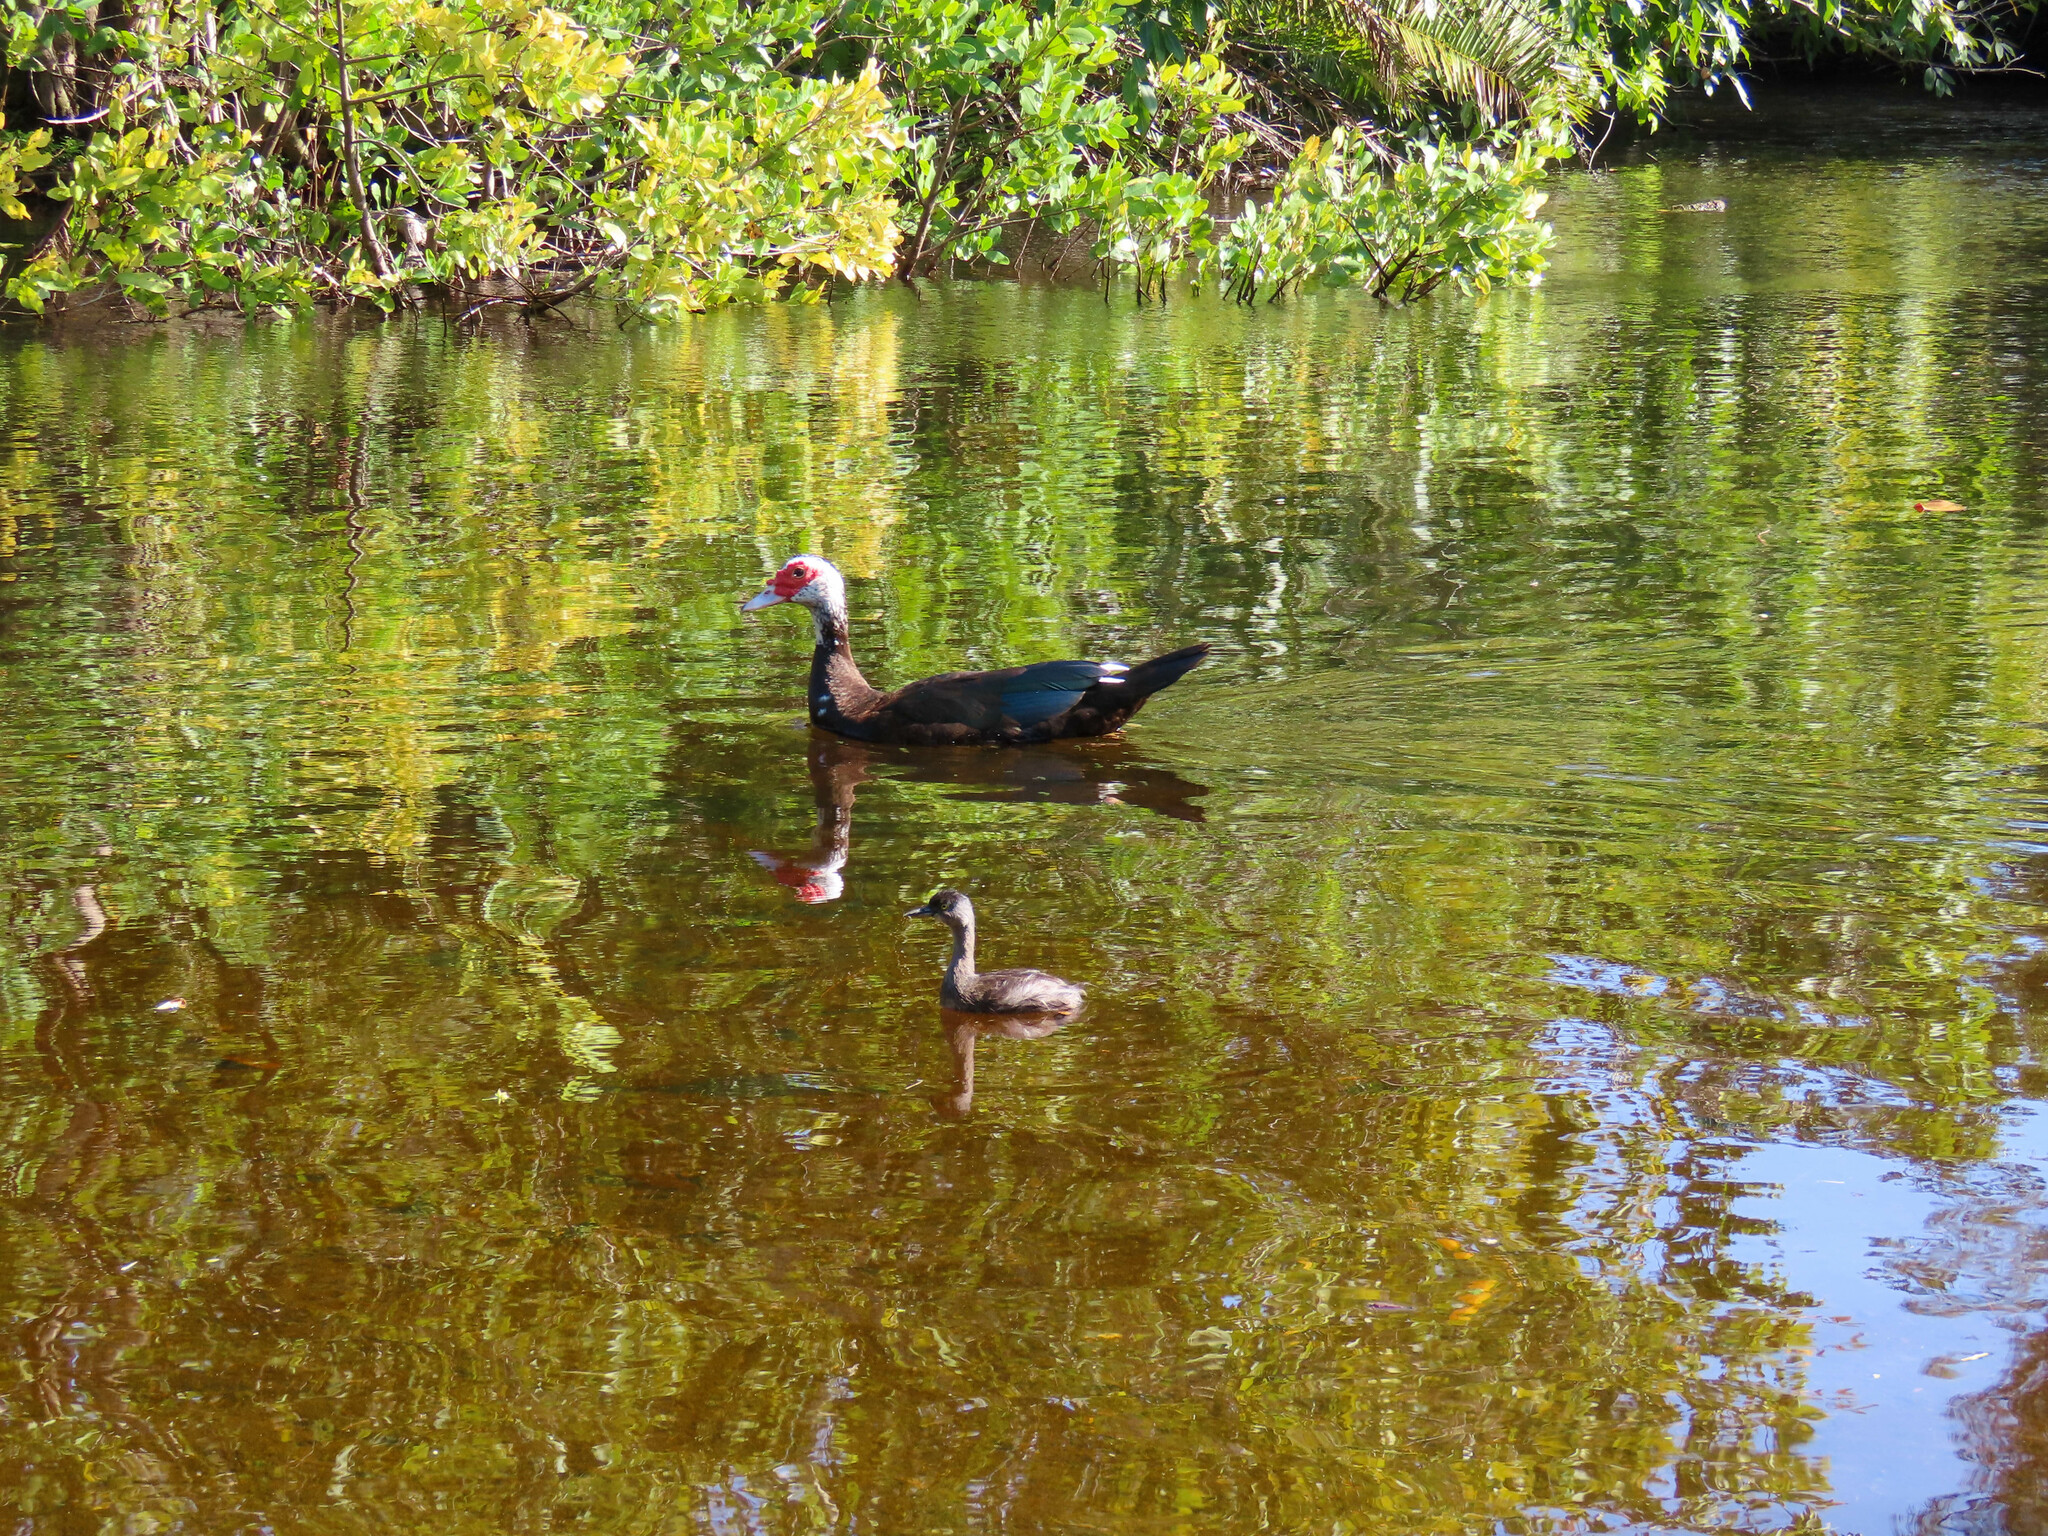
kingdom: Animalia
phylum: Chordata
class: Aves
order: Anseriformes
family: Anatidae
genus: Cairina
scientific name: Cairina moschata
